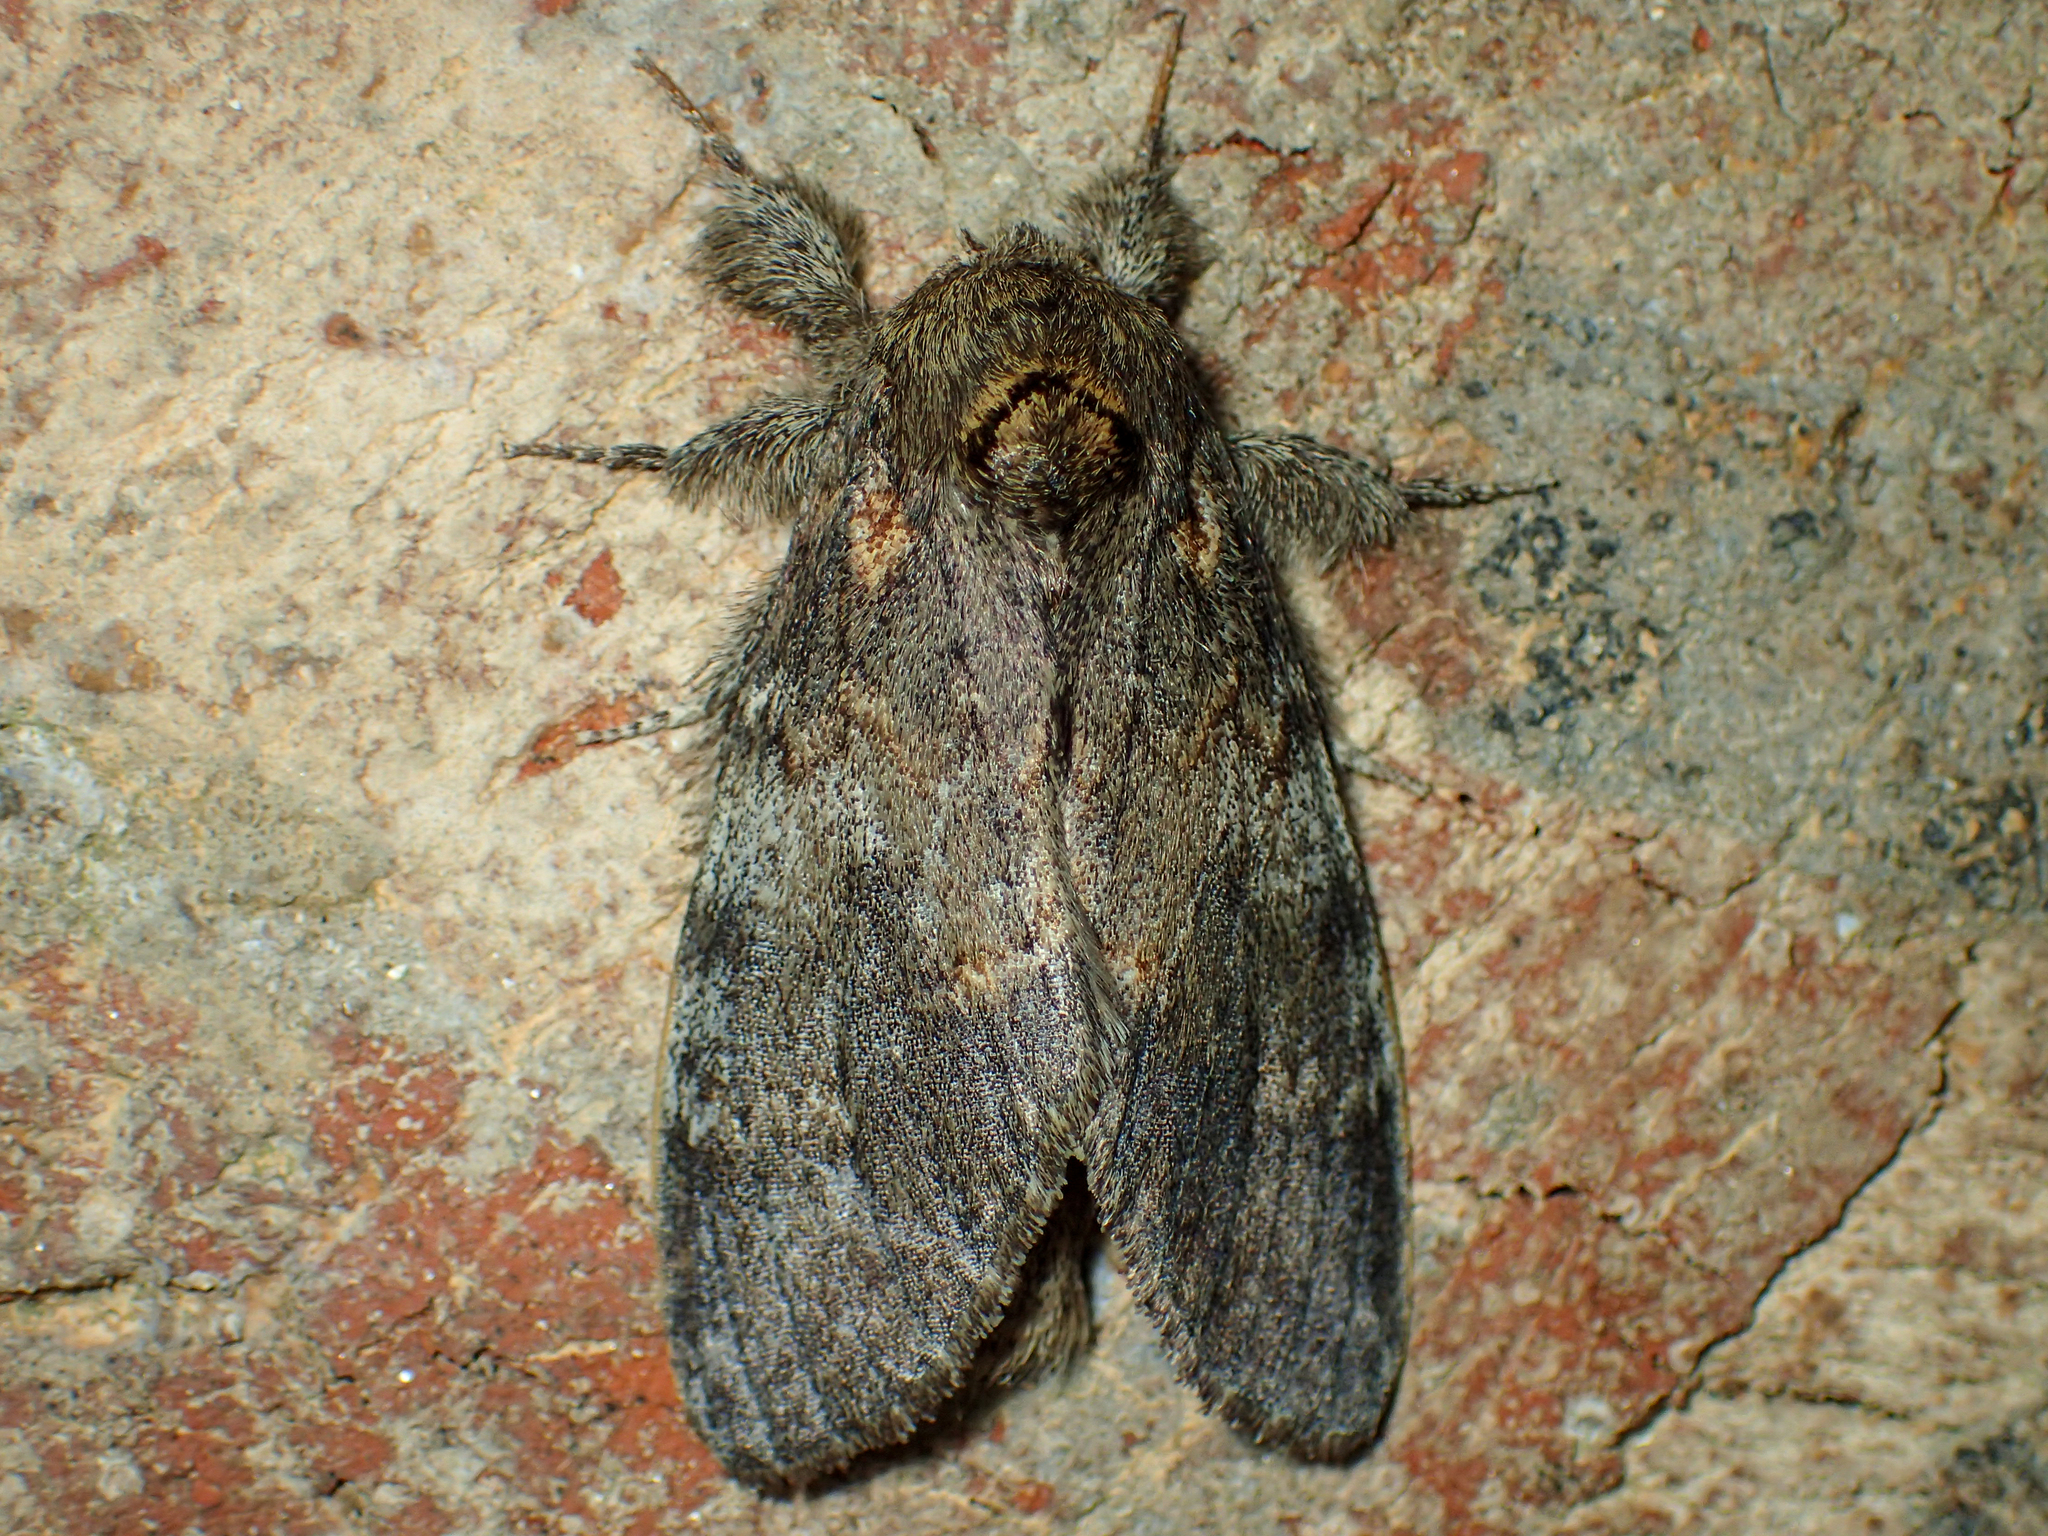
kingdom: Animalia
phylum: Arthropoda
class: Insecta
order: Lepidoptera
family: Notodontidae
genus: Peridea
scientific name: Peridea angulosa
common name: Angulose prominent
